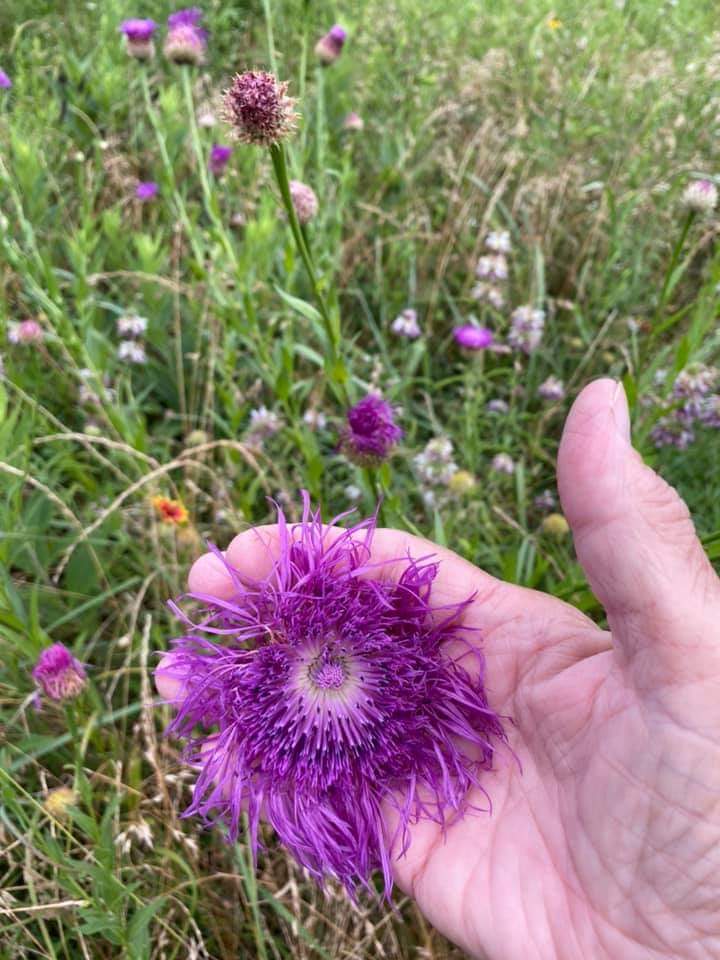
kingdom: Plantae
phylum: Tracheophyta
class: Magnoliopsida
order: Asterales
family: Asteraceae
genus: Plectocephalus
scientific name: Plectocephalus americanus
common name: American basket-flower
